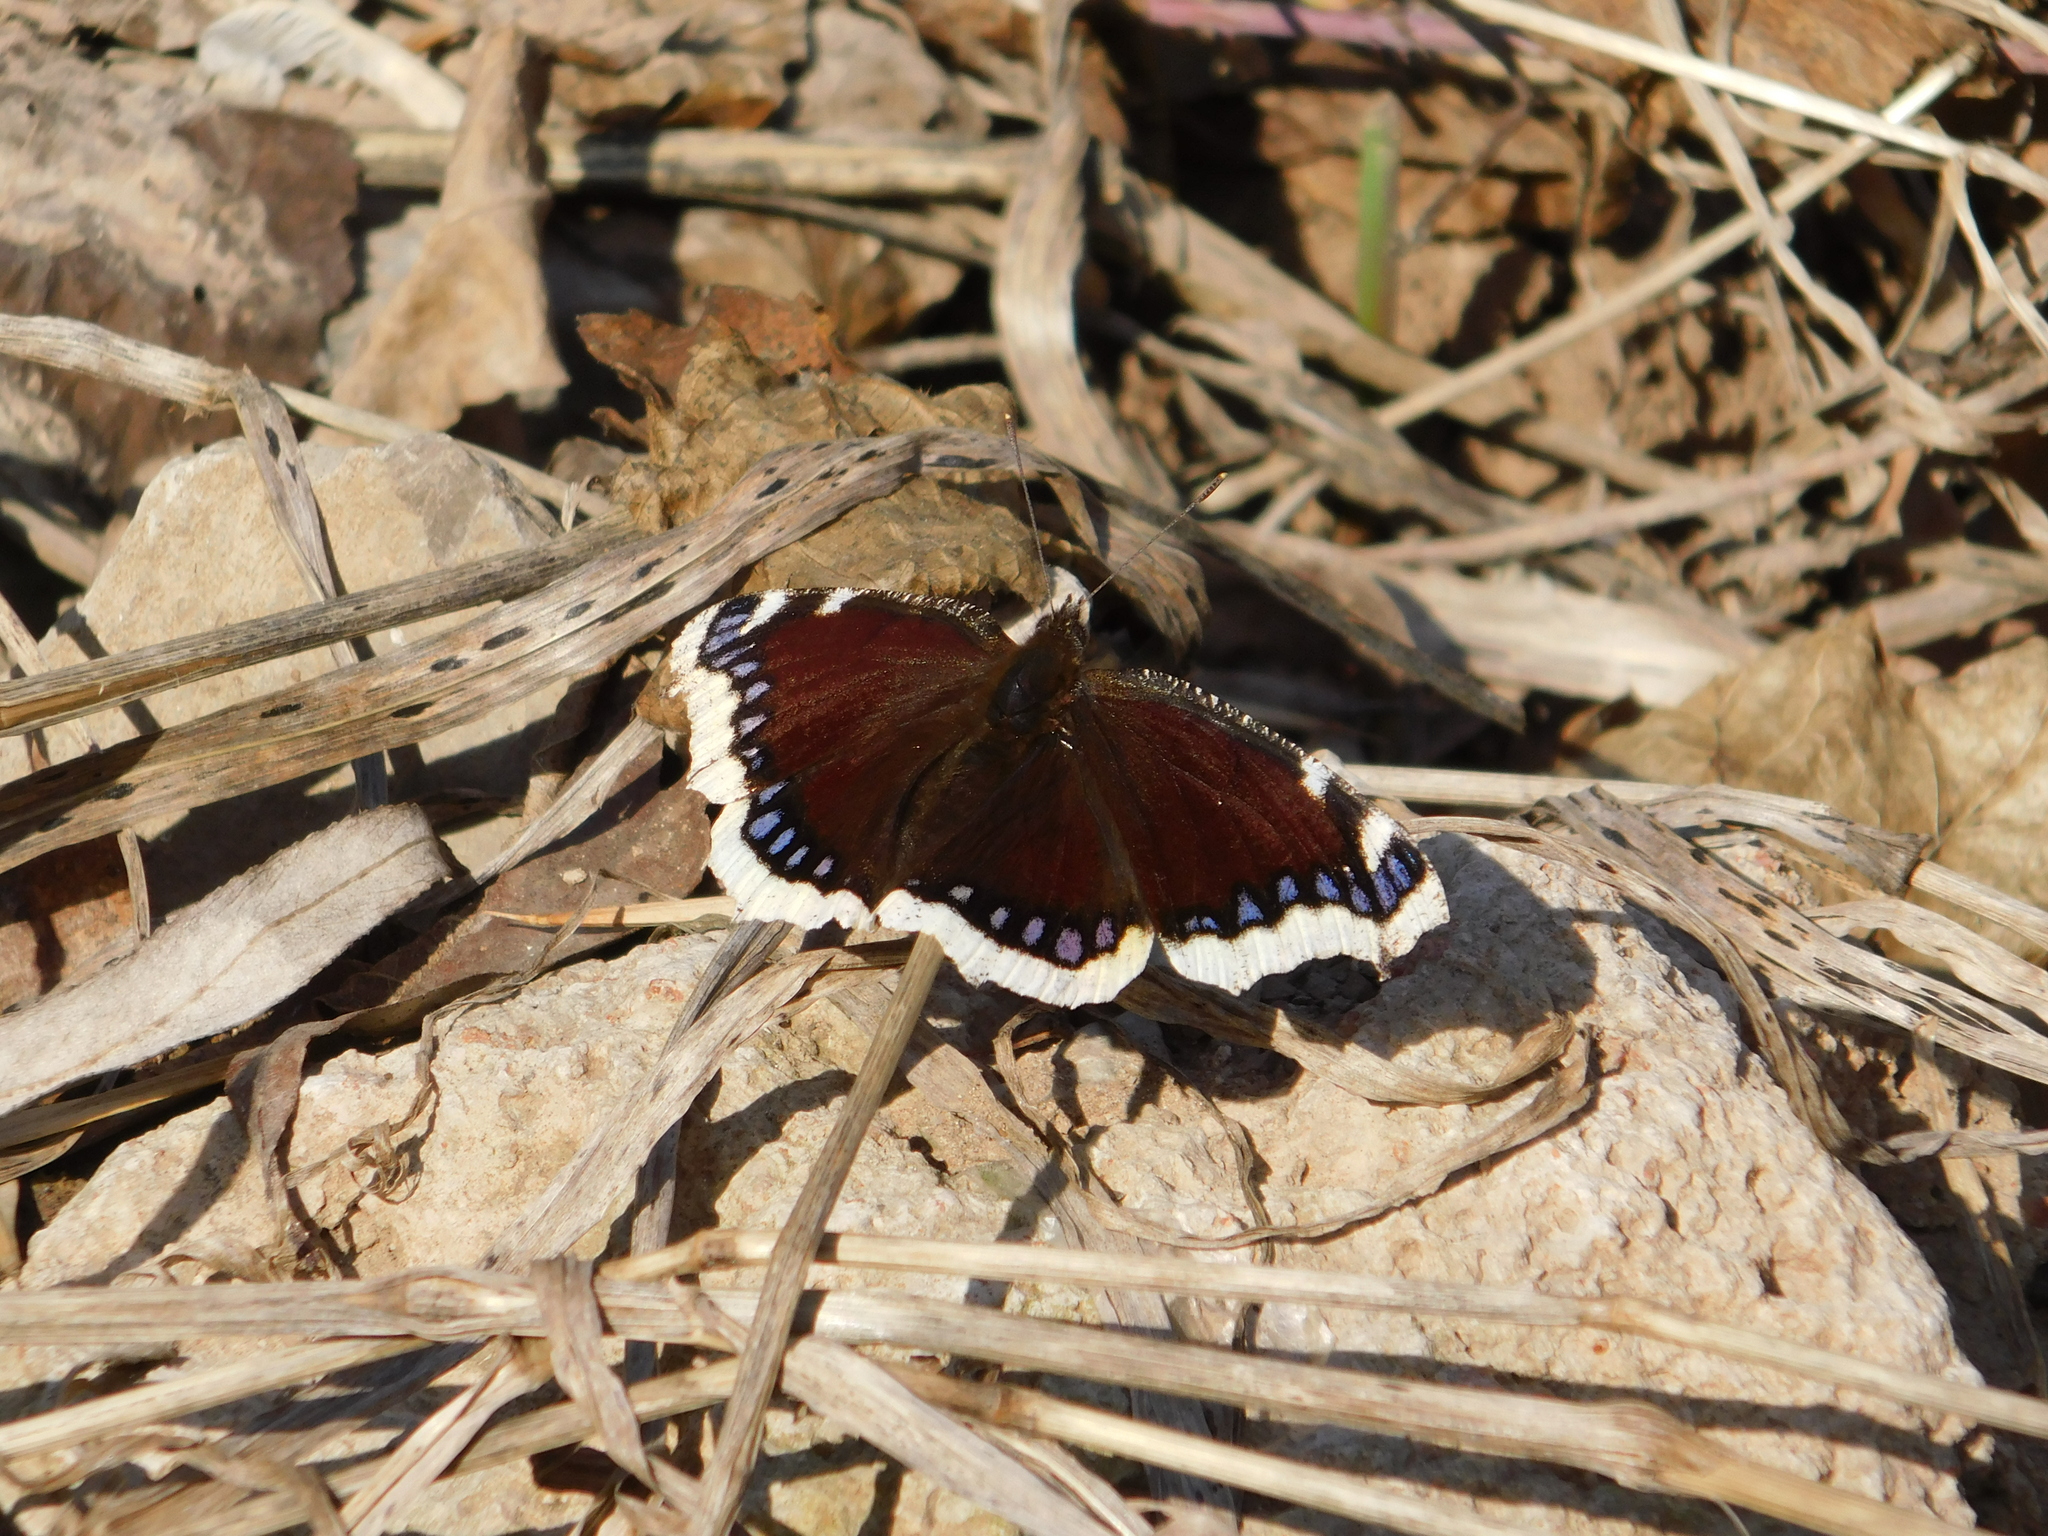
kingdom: Animalia
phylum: Arthropoda
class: Insecta
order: Lepidoptera
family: Nymphalidae
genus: Nymphalis
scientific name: Nymphalis antiopa
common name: Camberwell beauty
